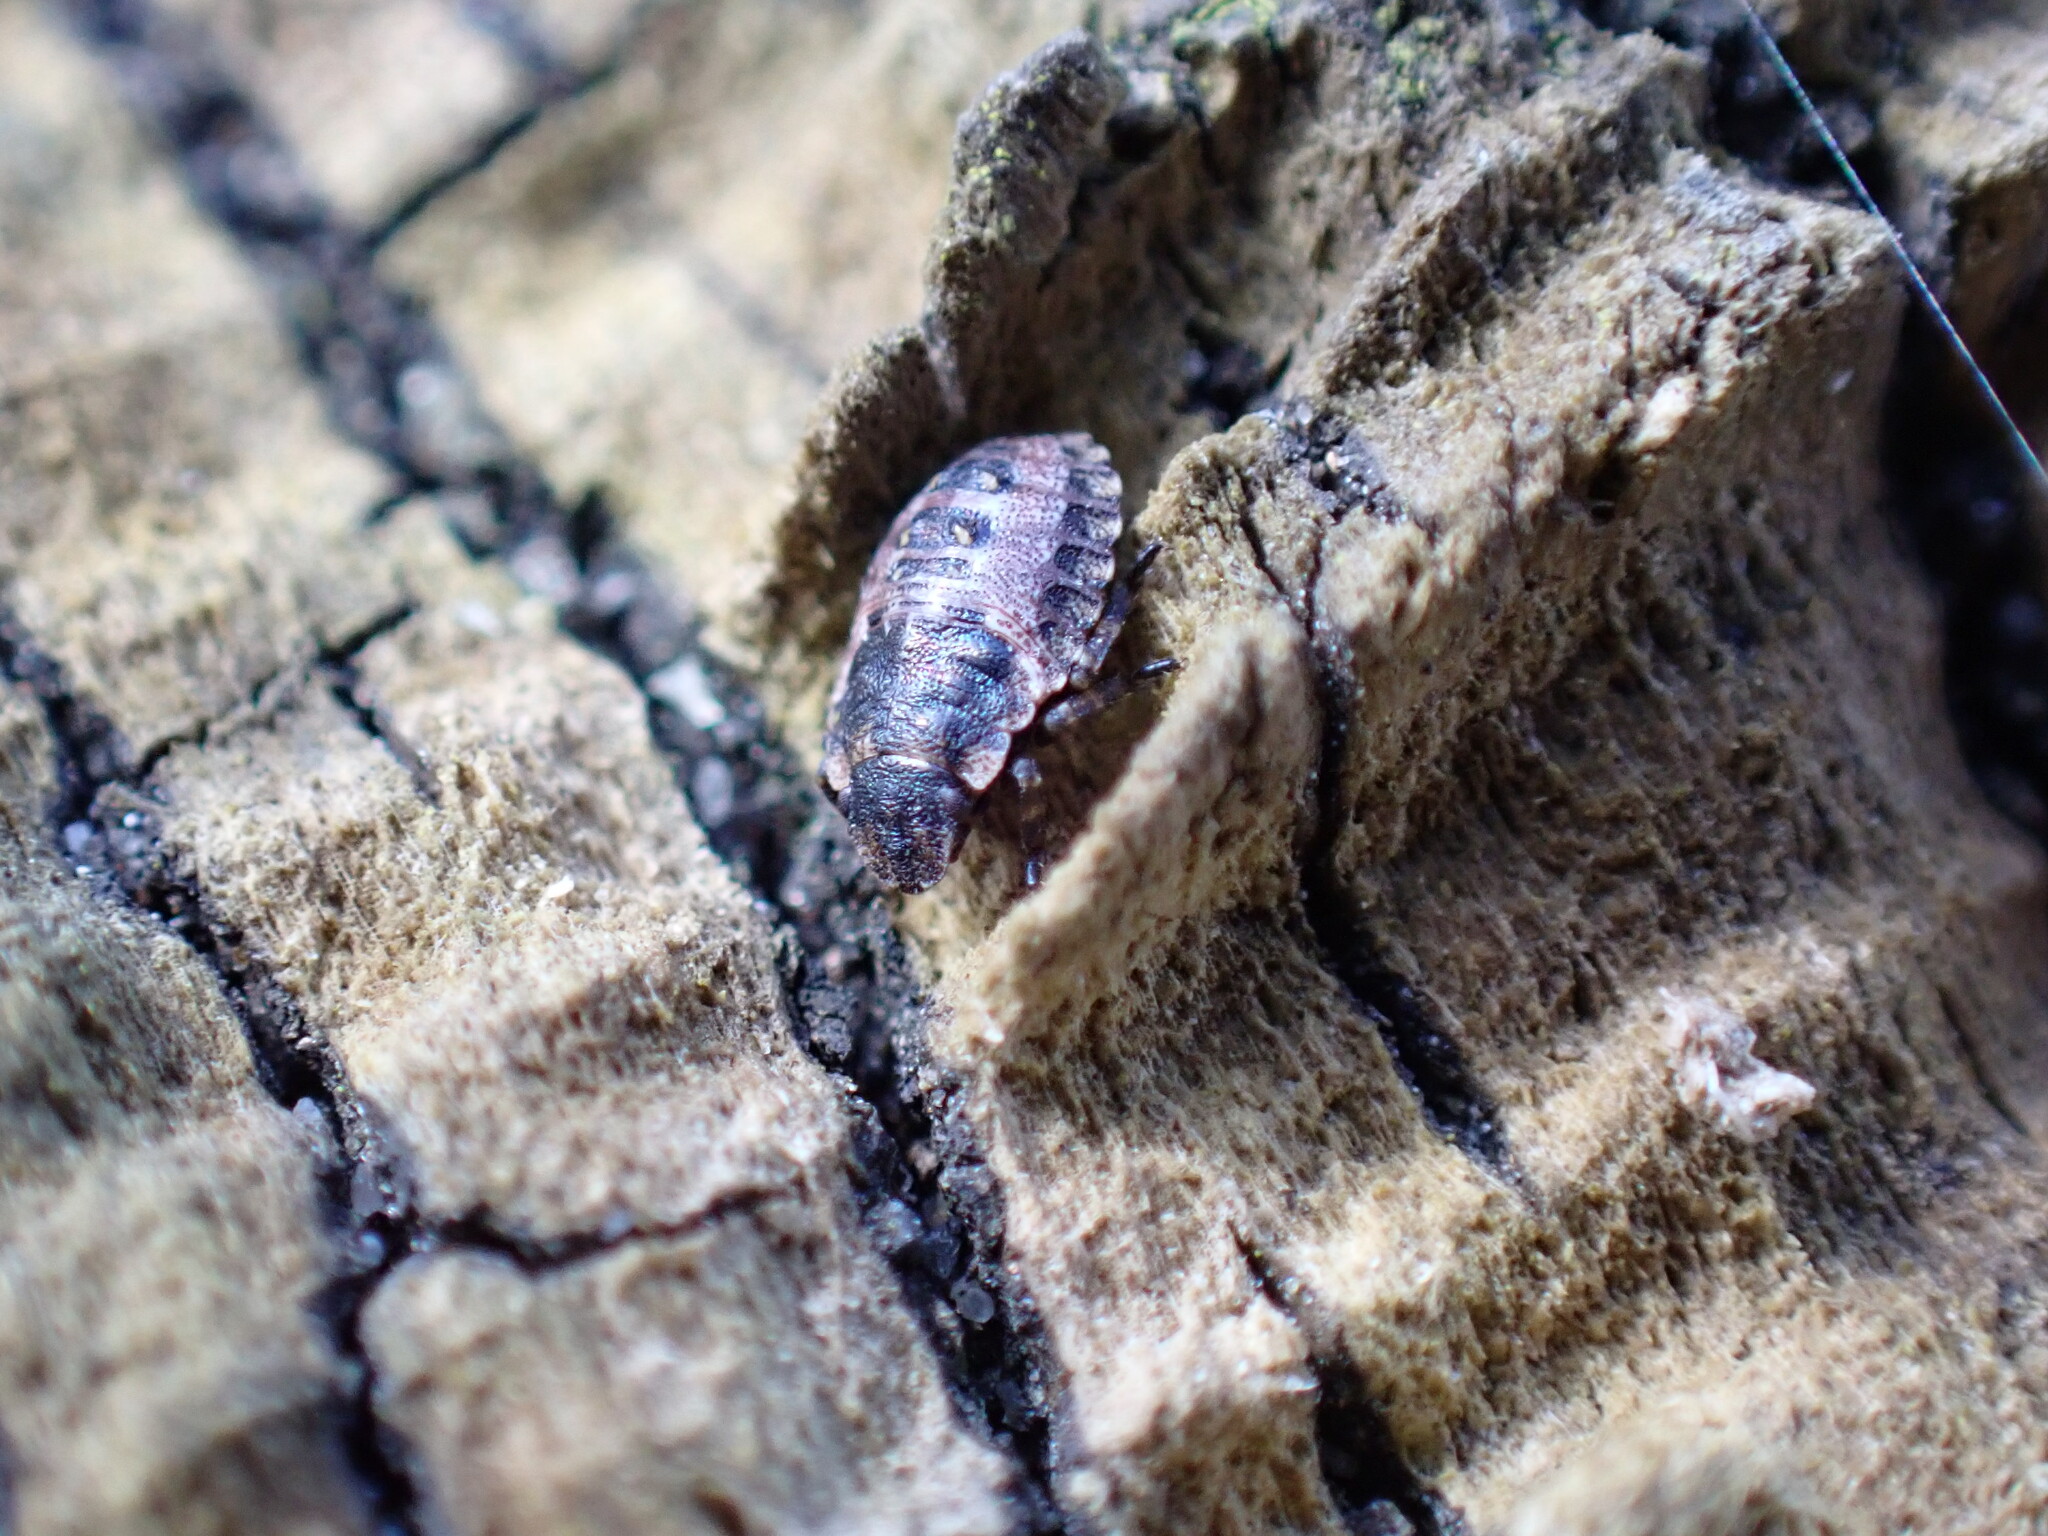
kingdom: Animalia
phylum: Arthropoda
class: Insecta
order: Hemiptera
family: Pentatomidae
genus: Pentatoma
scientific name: Pentatoma rufipes
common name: Forest bug
